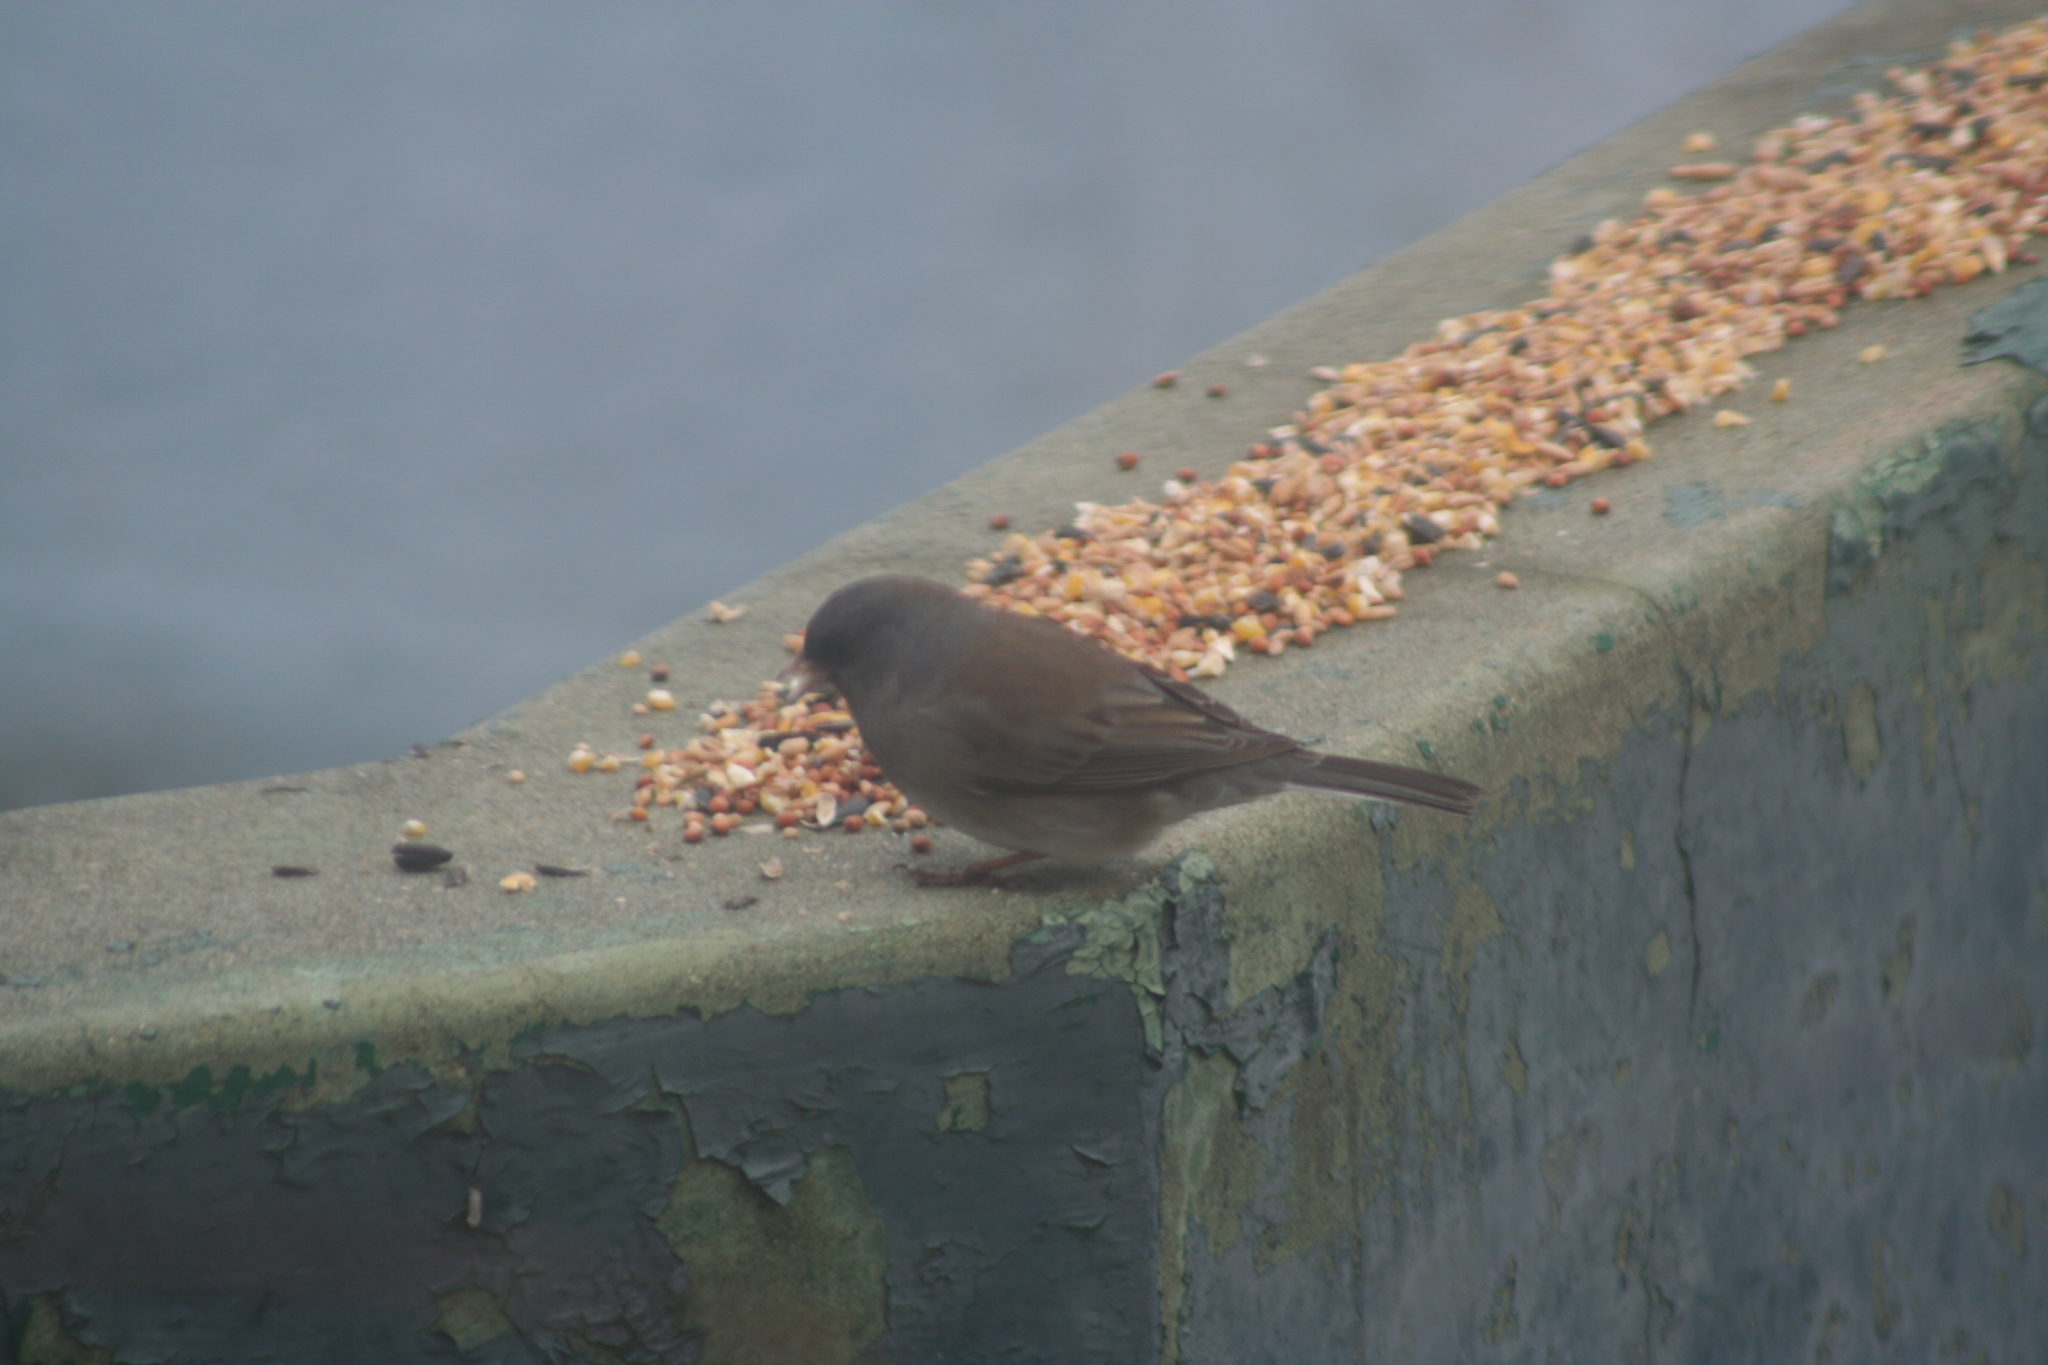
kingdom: Animalia
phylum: Chordata
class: Aves
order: Passeriformes
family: Passerellidae
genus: Junco
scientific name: Junco hyemalis
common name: Dark-eyed junco
